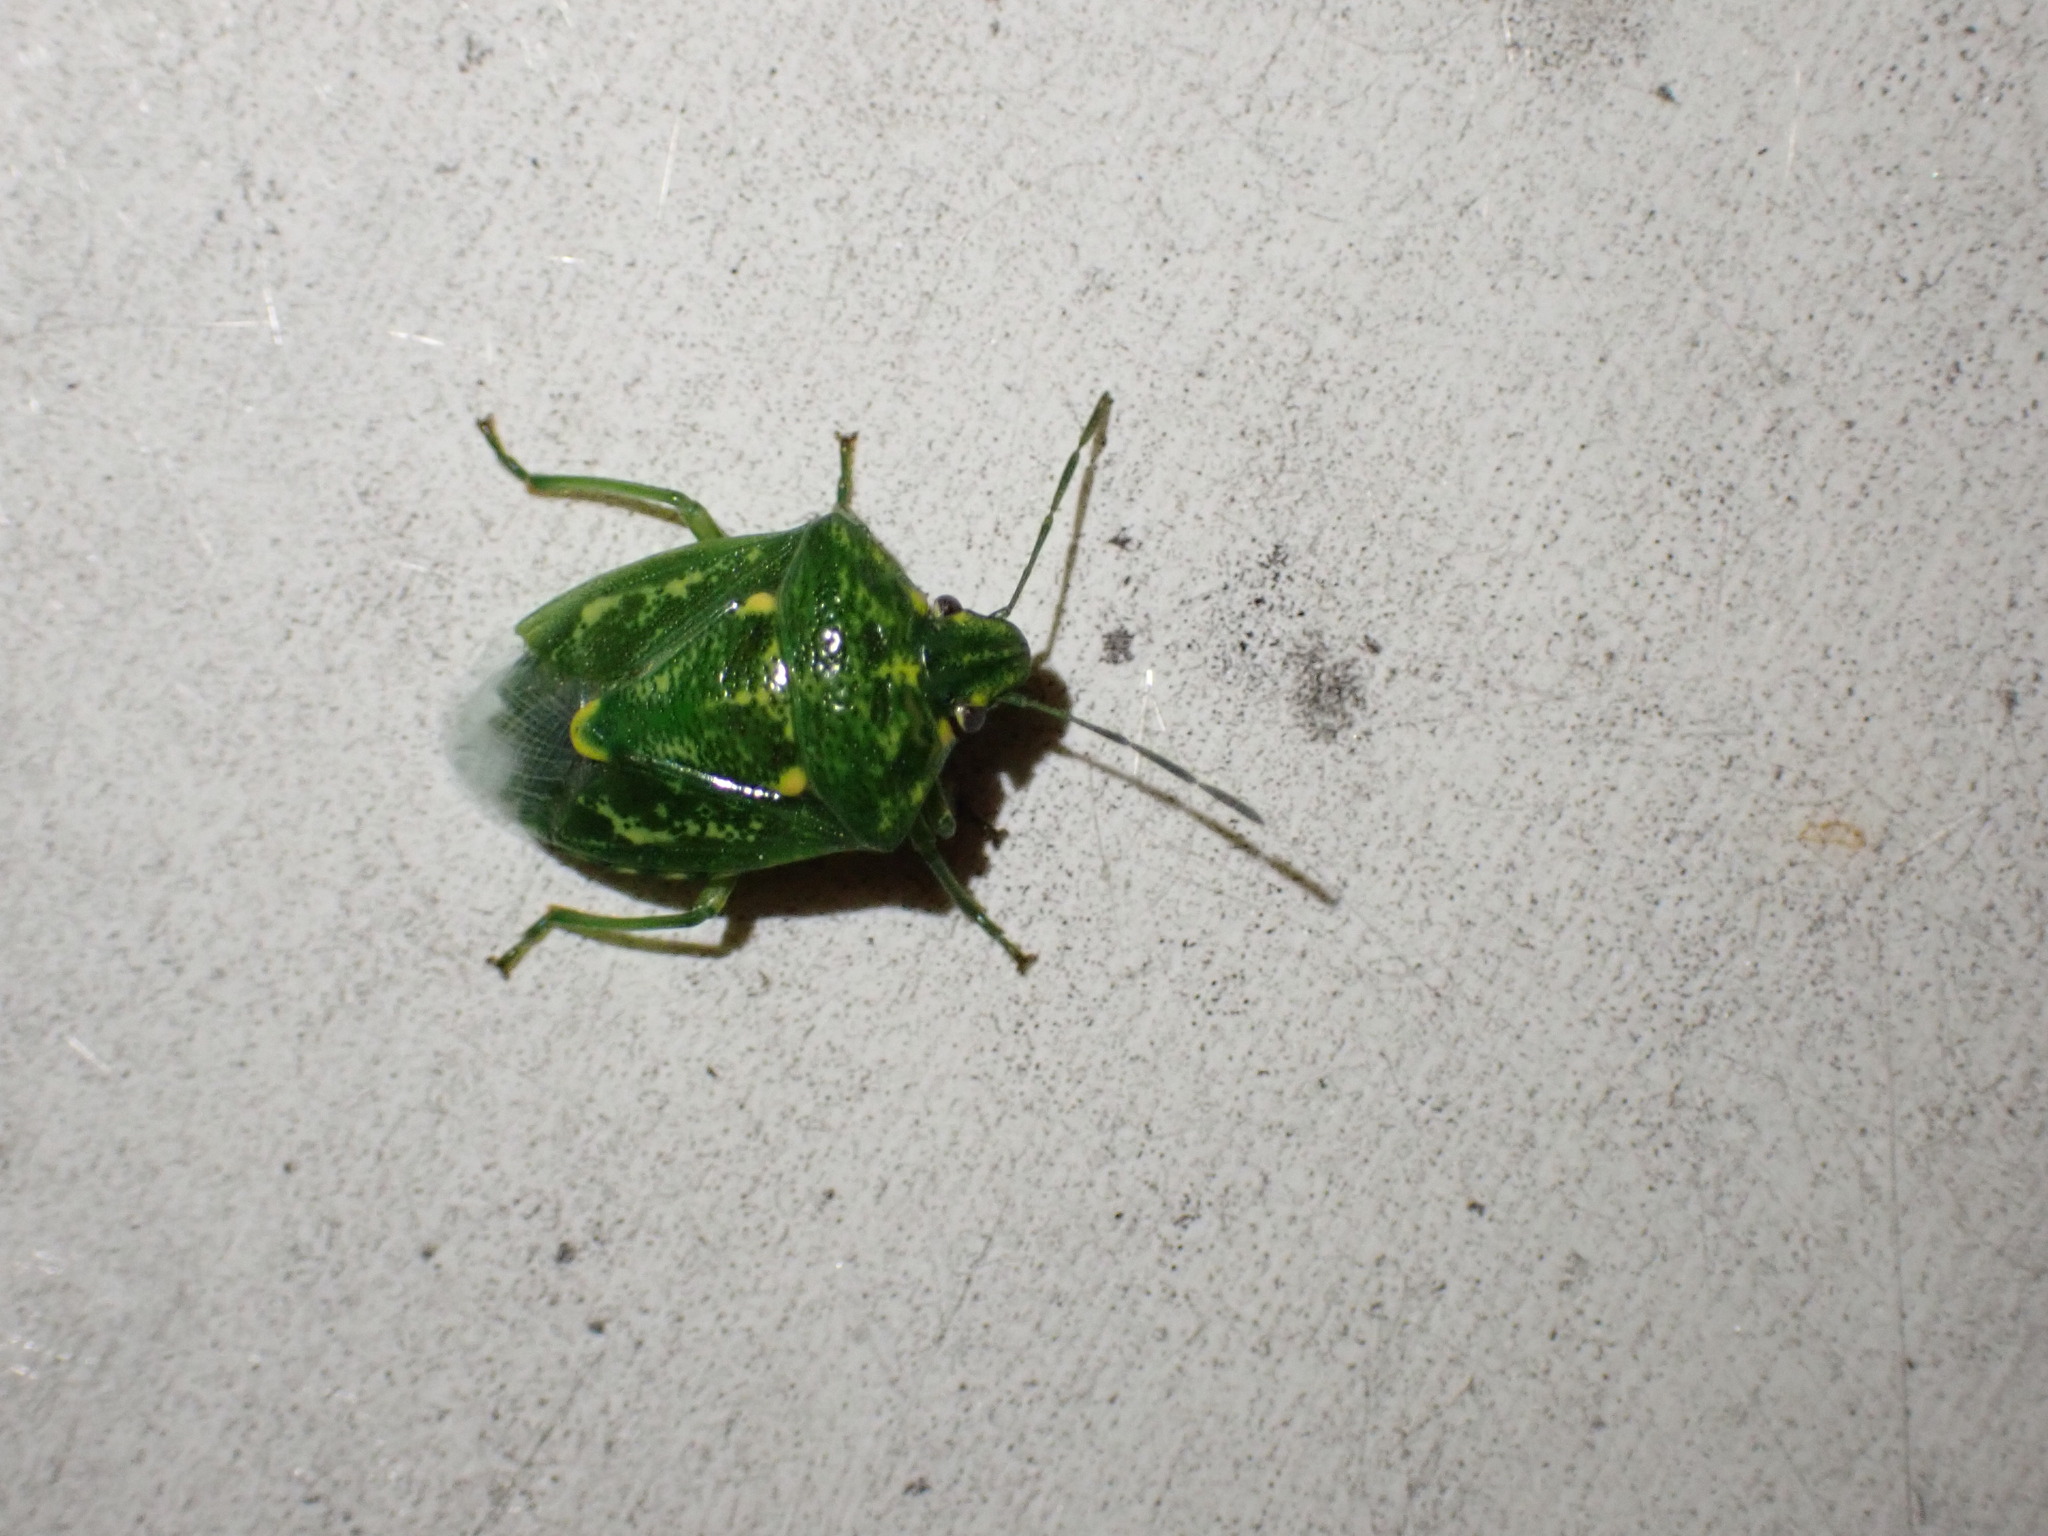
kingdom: Animalia
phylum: Arthropoda
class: Insecta
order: Hemiptera
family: Pentatomidae
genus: Banasa
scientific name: Banasa euchlora
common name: Cedar berry bug
